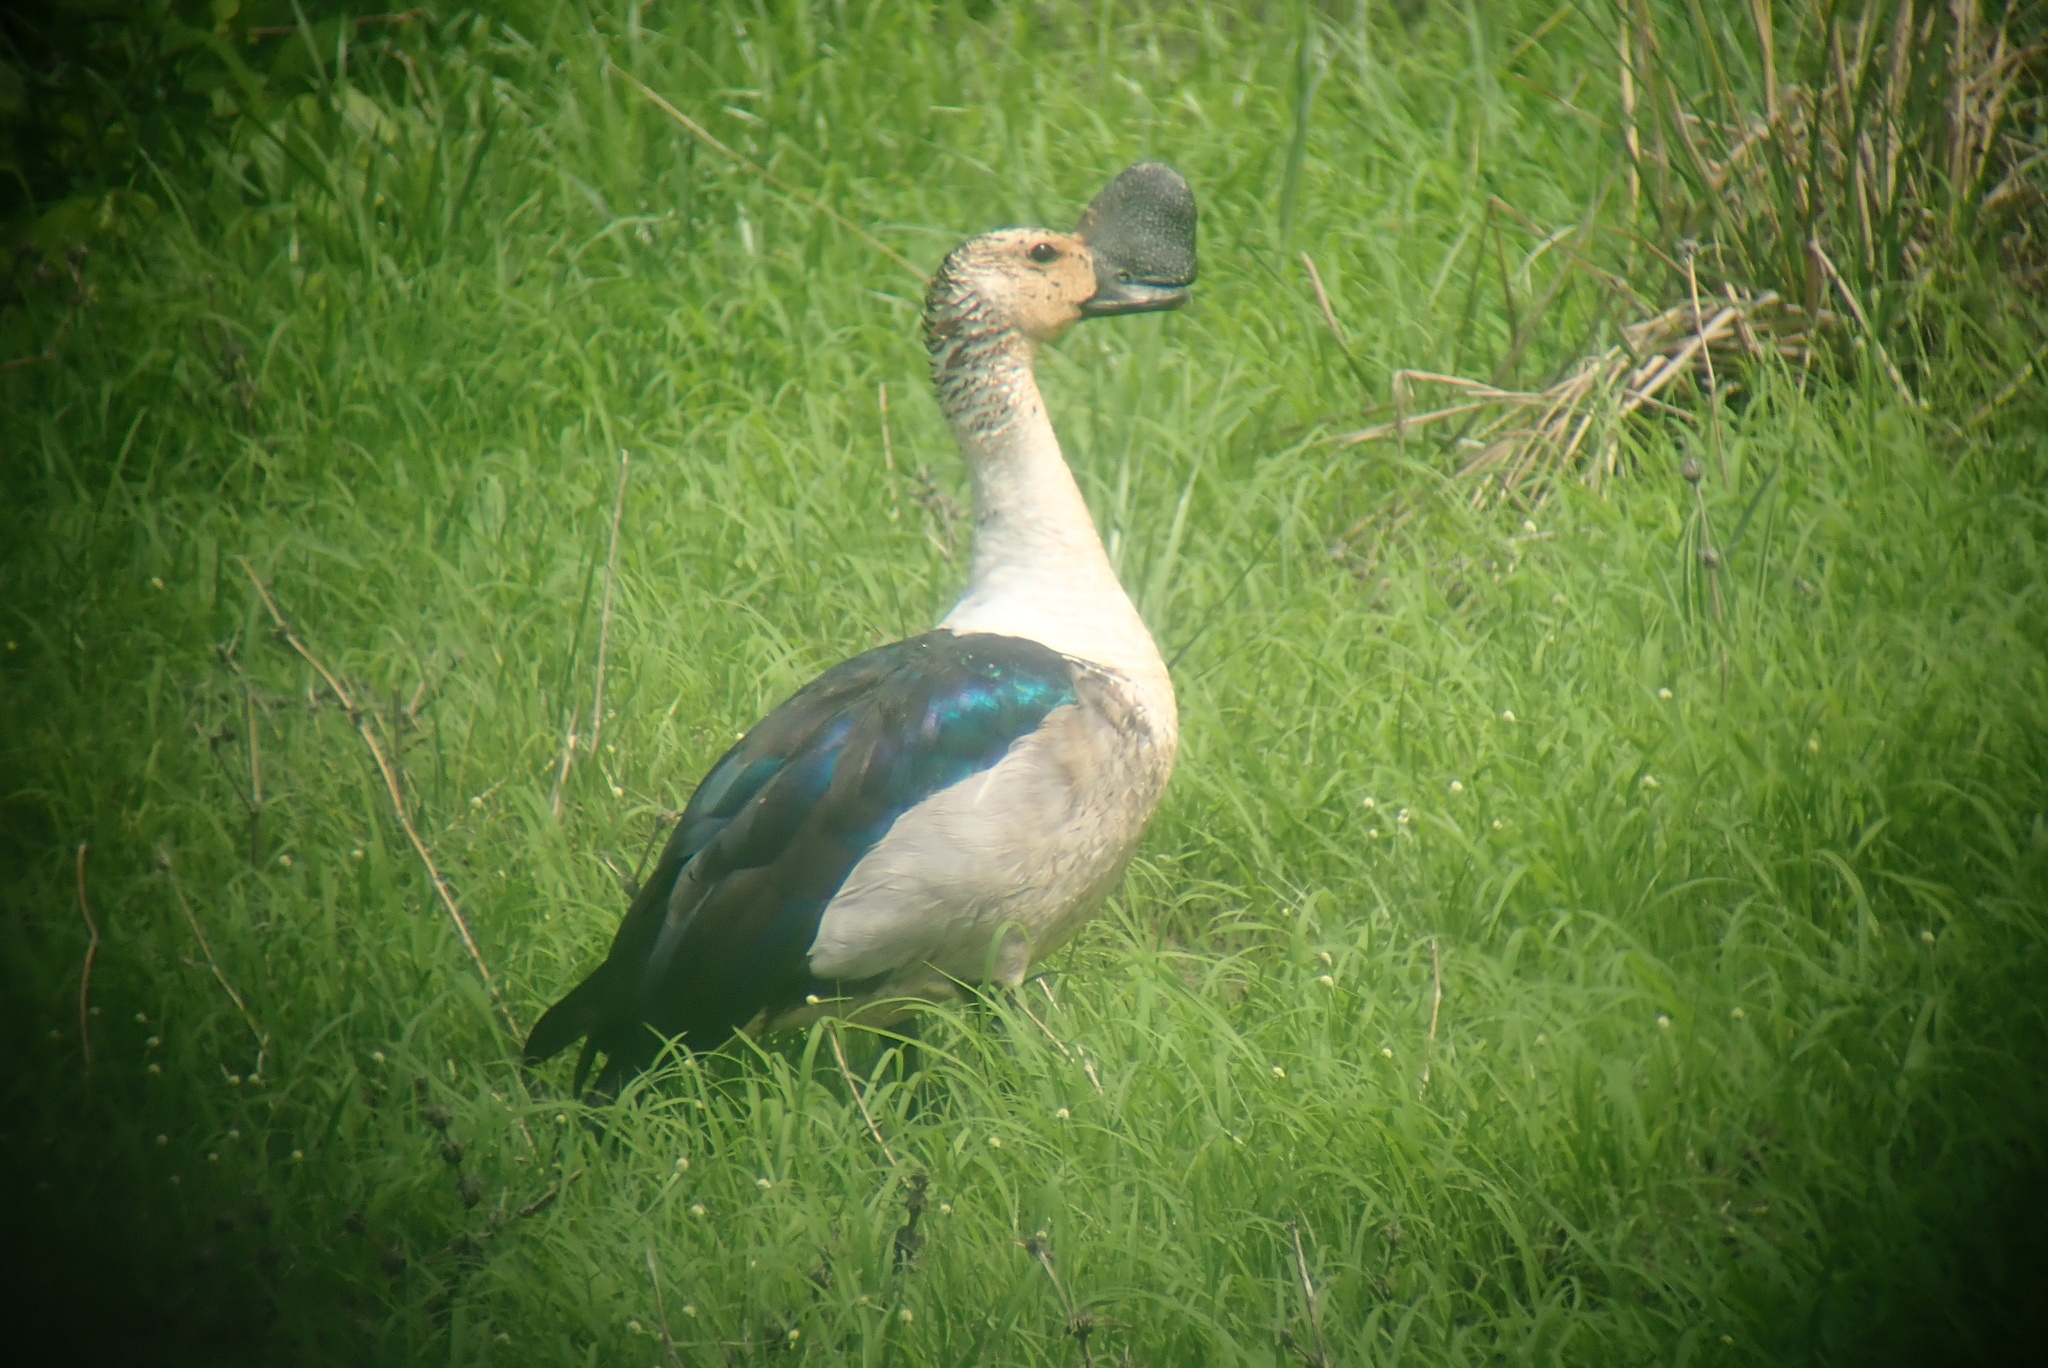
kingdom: Animalia
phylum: Chordata
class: Aves
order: Anseriformes
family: Anatidae
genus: Sarkidiornis
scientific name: Sarkidiornis melanotos
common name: Comb duck
